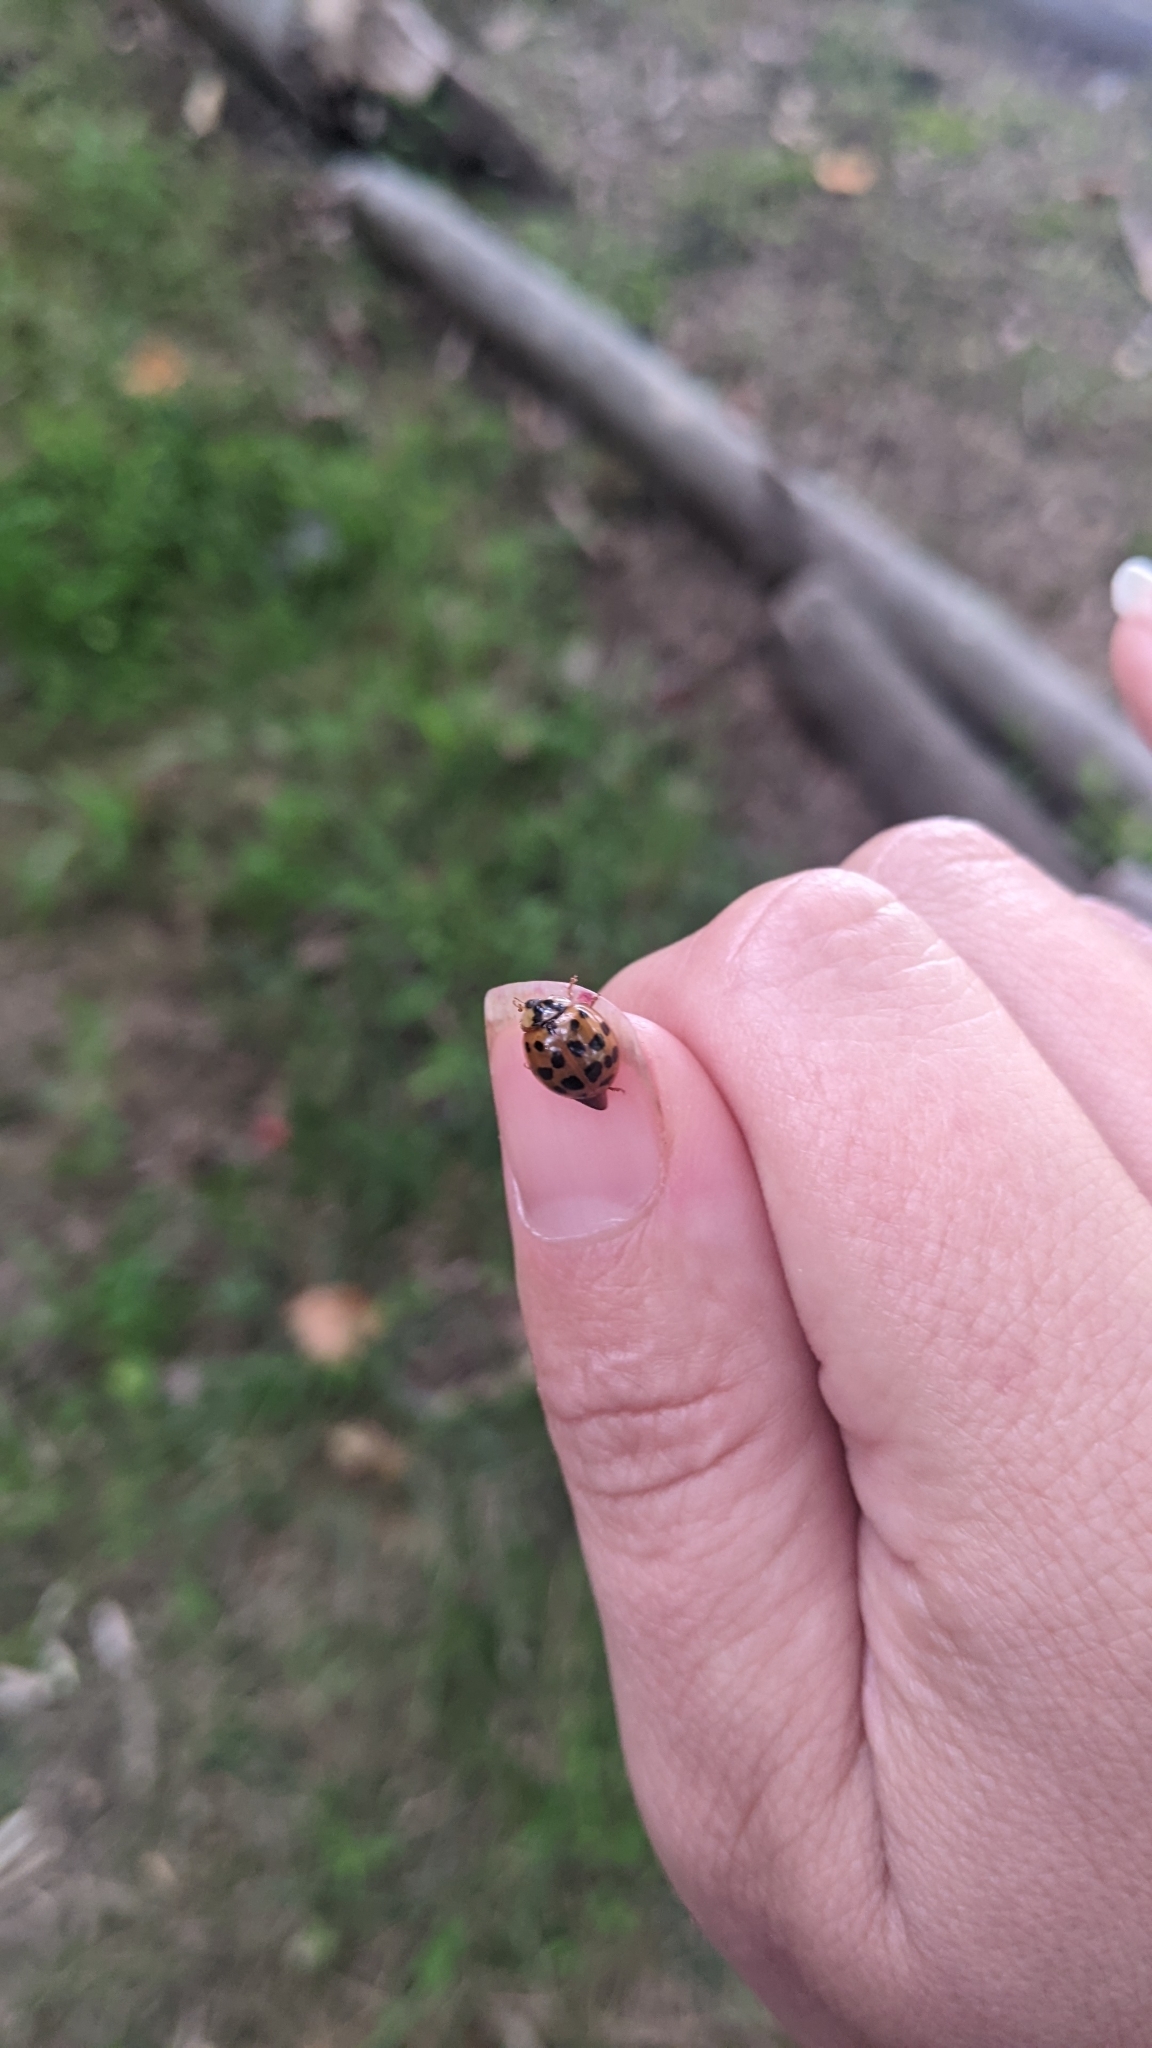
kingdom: Animalia
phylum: Arthropoda
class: Insecta
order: Coleoptera
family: Coccinellidae
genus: Harmonia
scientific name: Harmonia axyridis
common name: Harlequin ladybird
